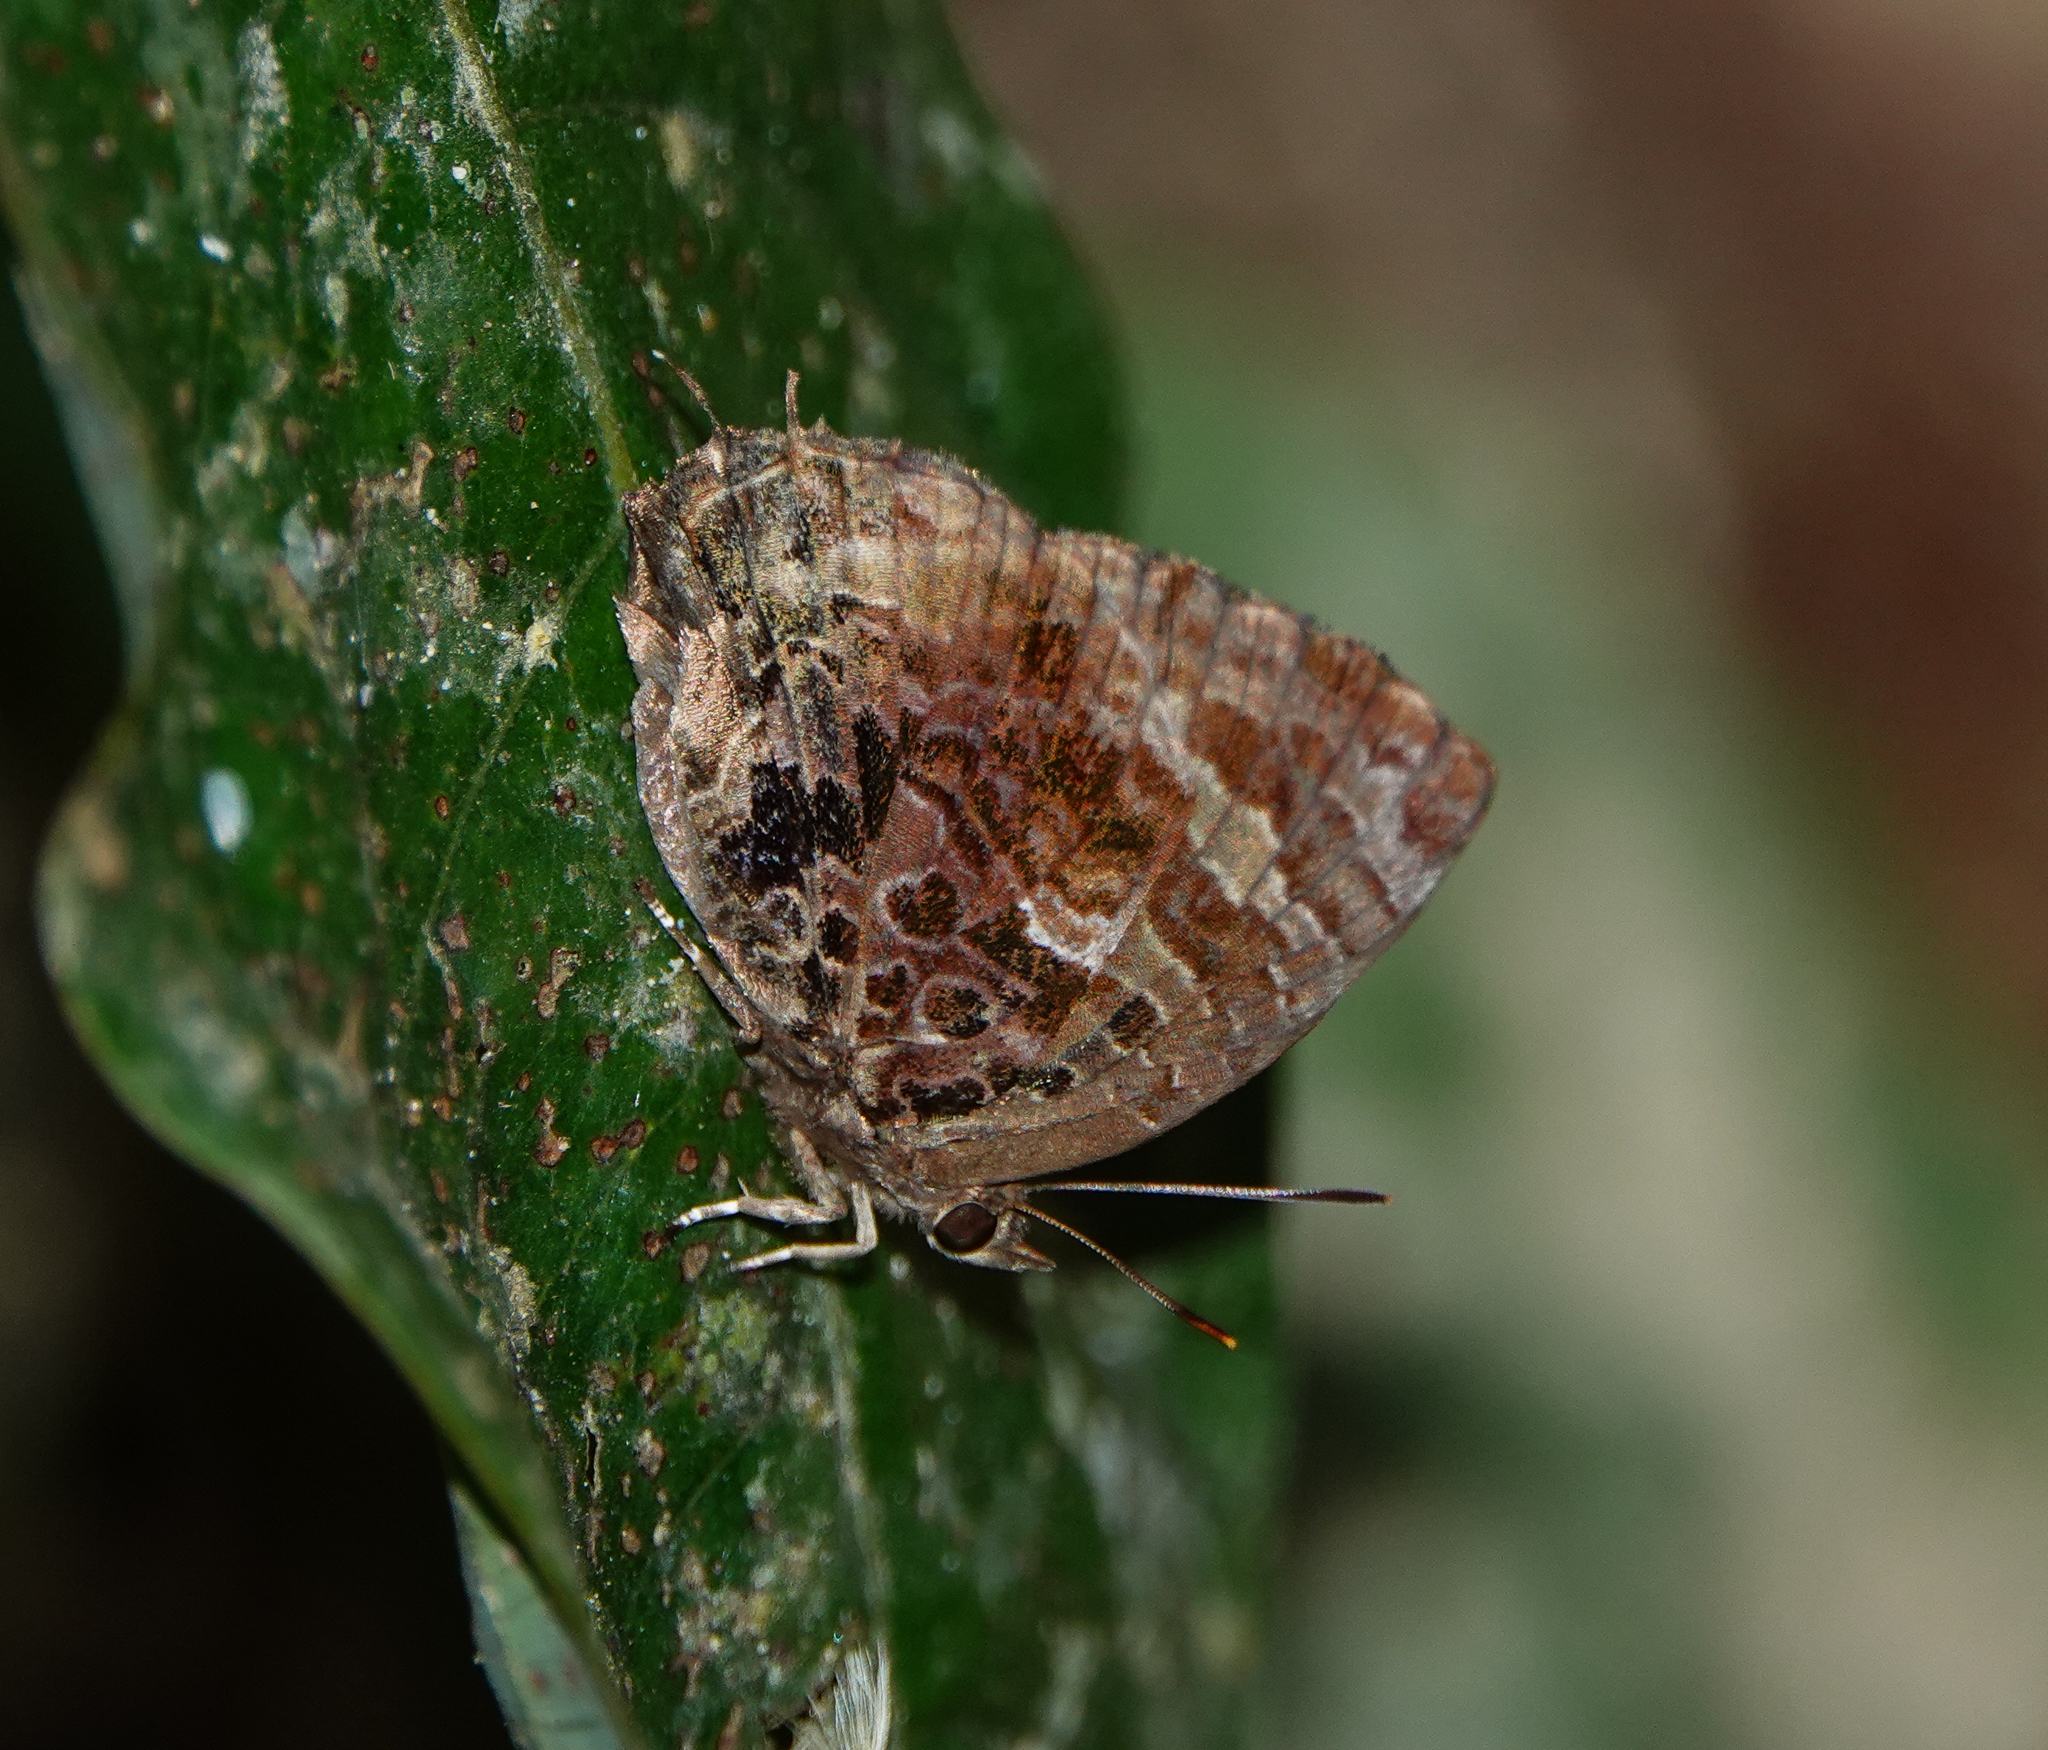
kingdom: Animalia
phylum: Arthropoda
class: Insecta
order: Lepidoptera
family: Lycaenidae
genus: Arhopala
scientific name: Arhopala abseus
